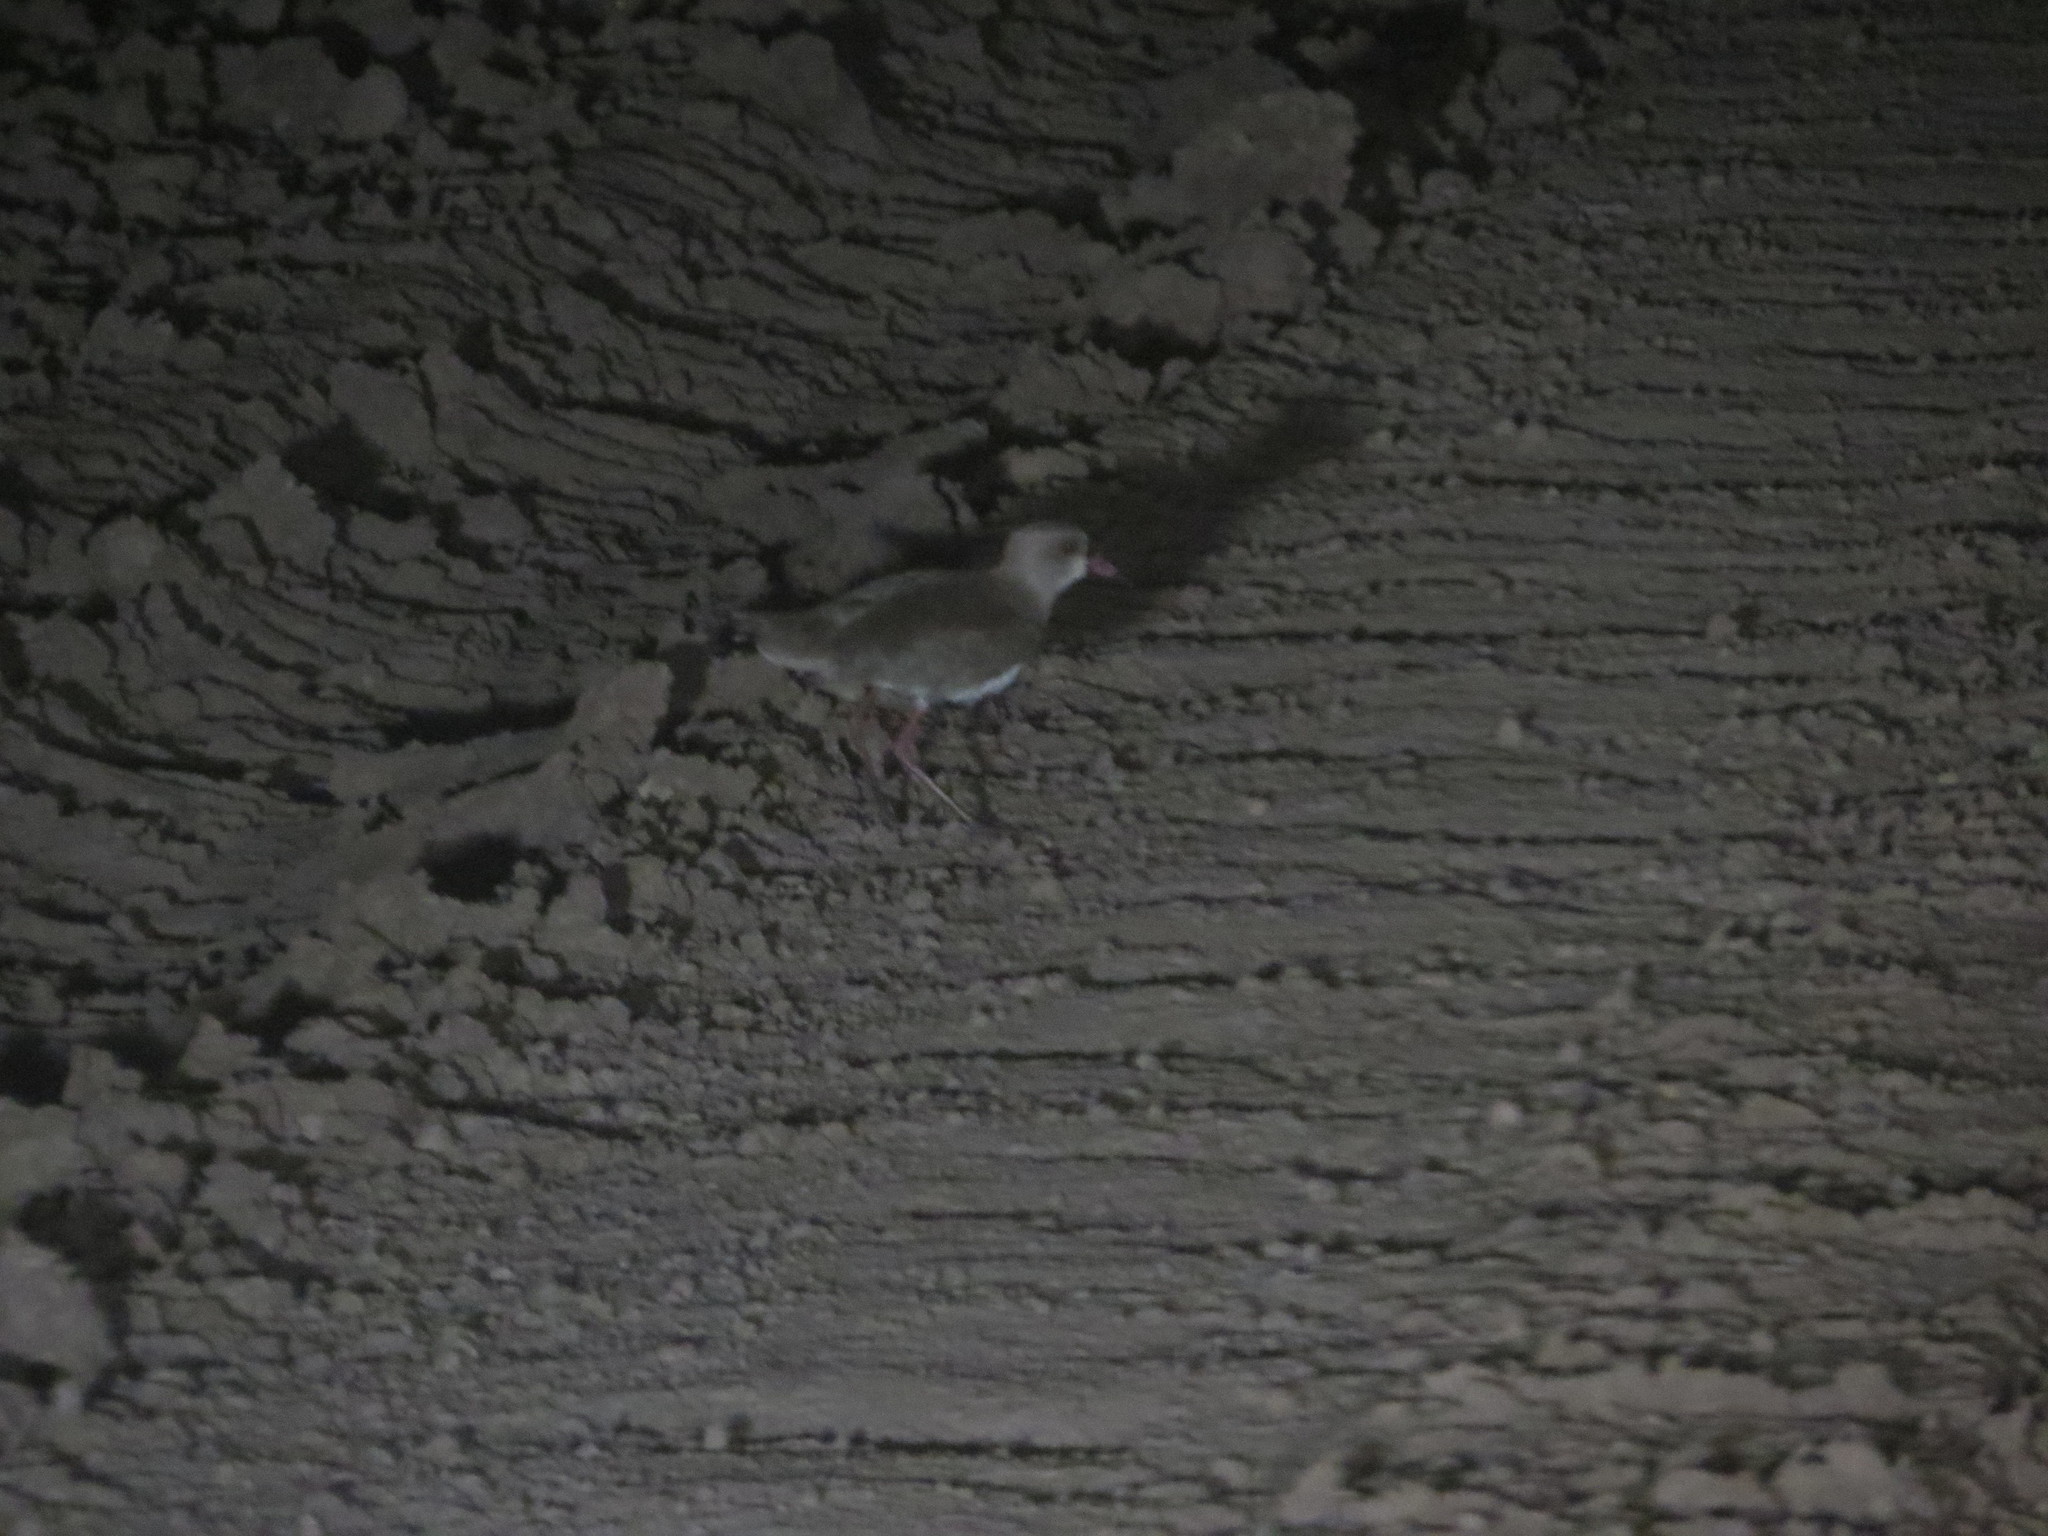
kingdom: Animalia
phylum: Chordata
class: Aves
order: Charadriiformes
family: Charadriidae
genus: Vanellus
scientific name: Vanellus chilensis
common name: Southern lapwing
